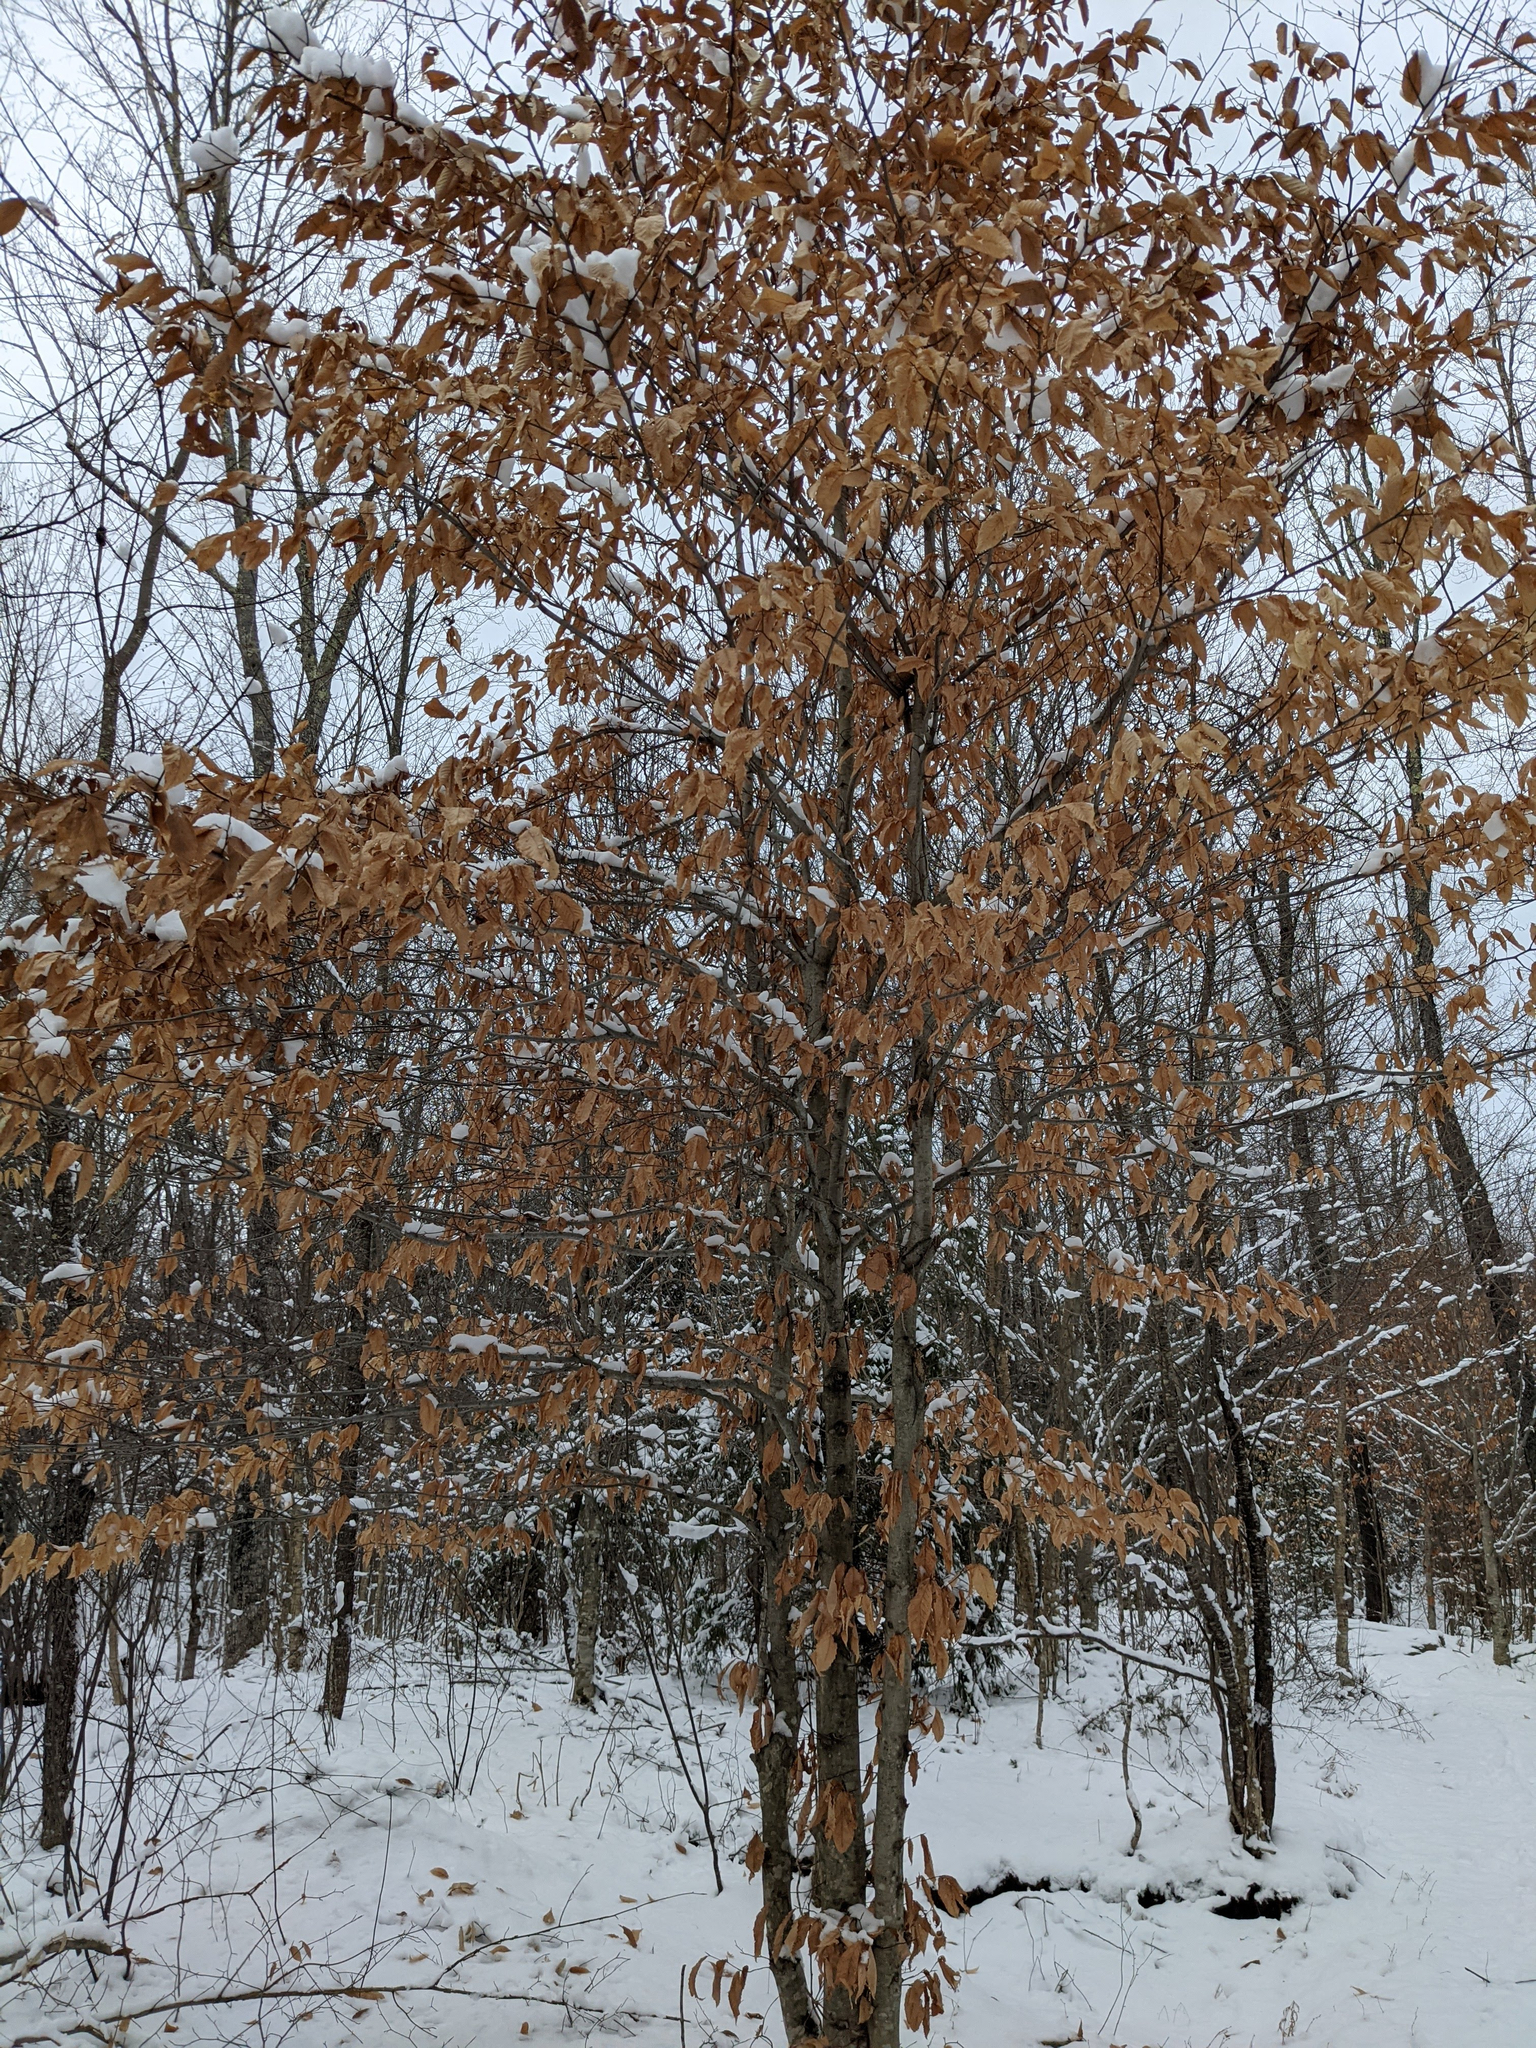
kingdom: Plantae
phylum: Tracheophyta
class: Magnoliopsida
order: Fagales
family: Fagaceae
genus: Fagus
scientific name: Fagus grandifolia
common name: American beech
